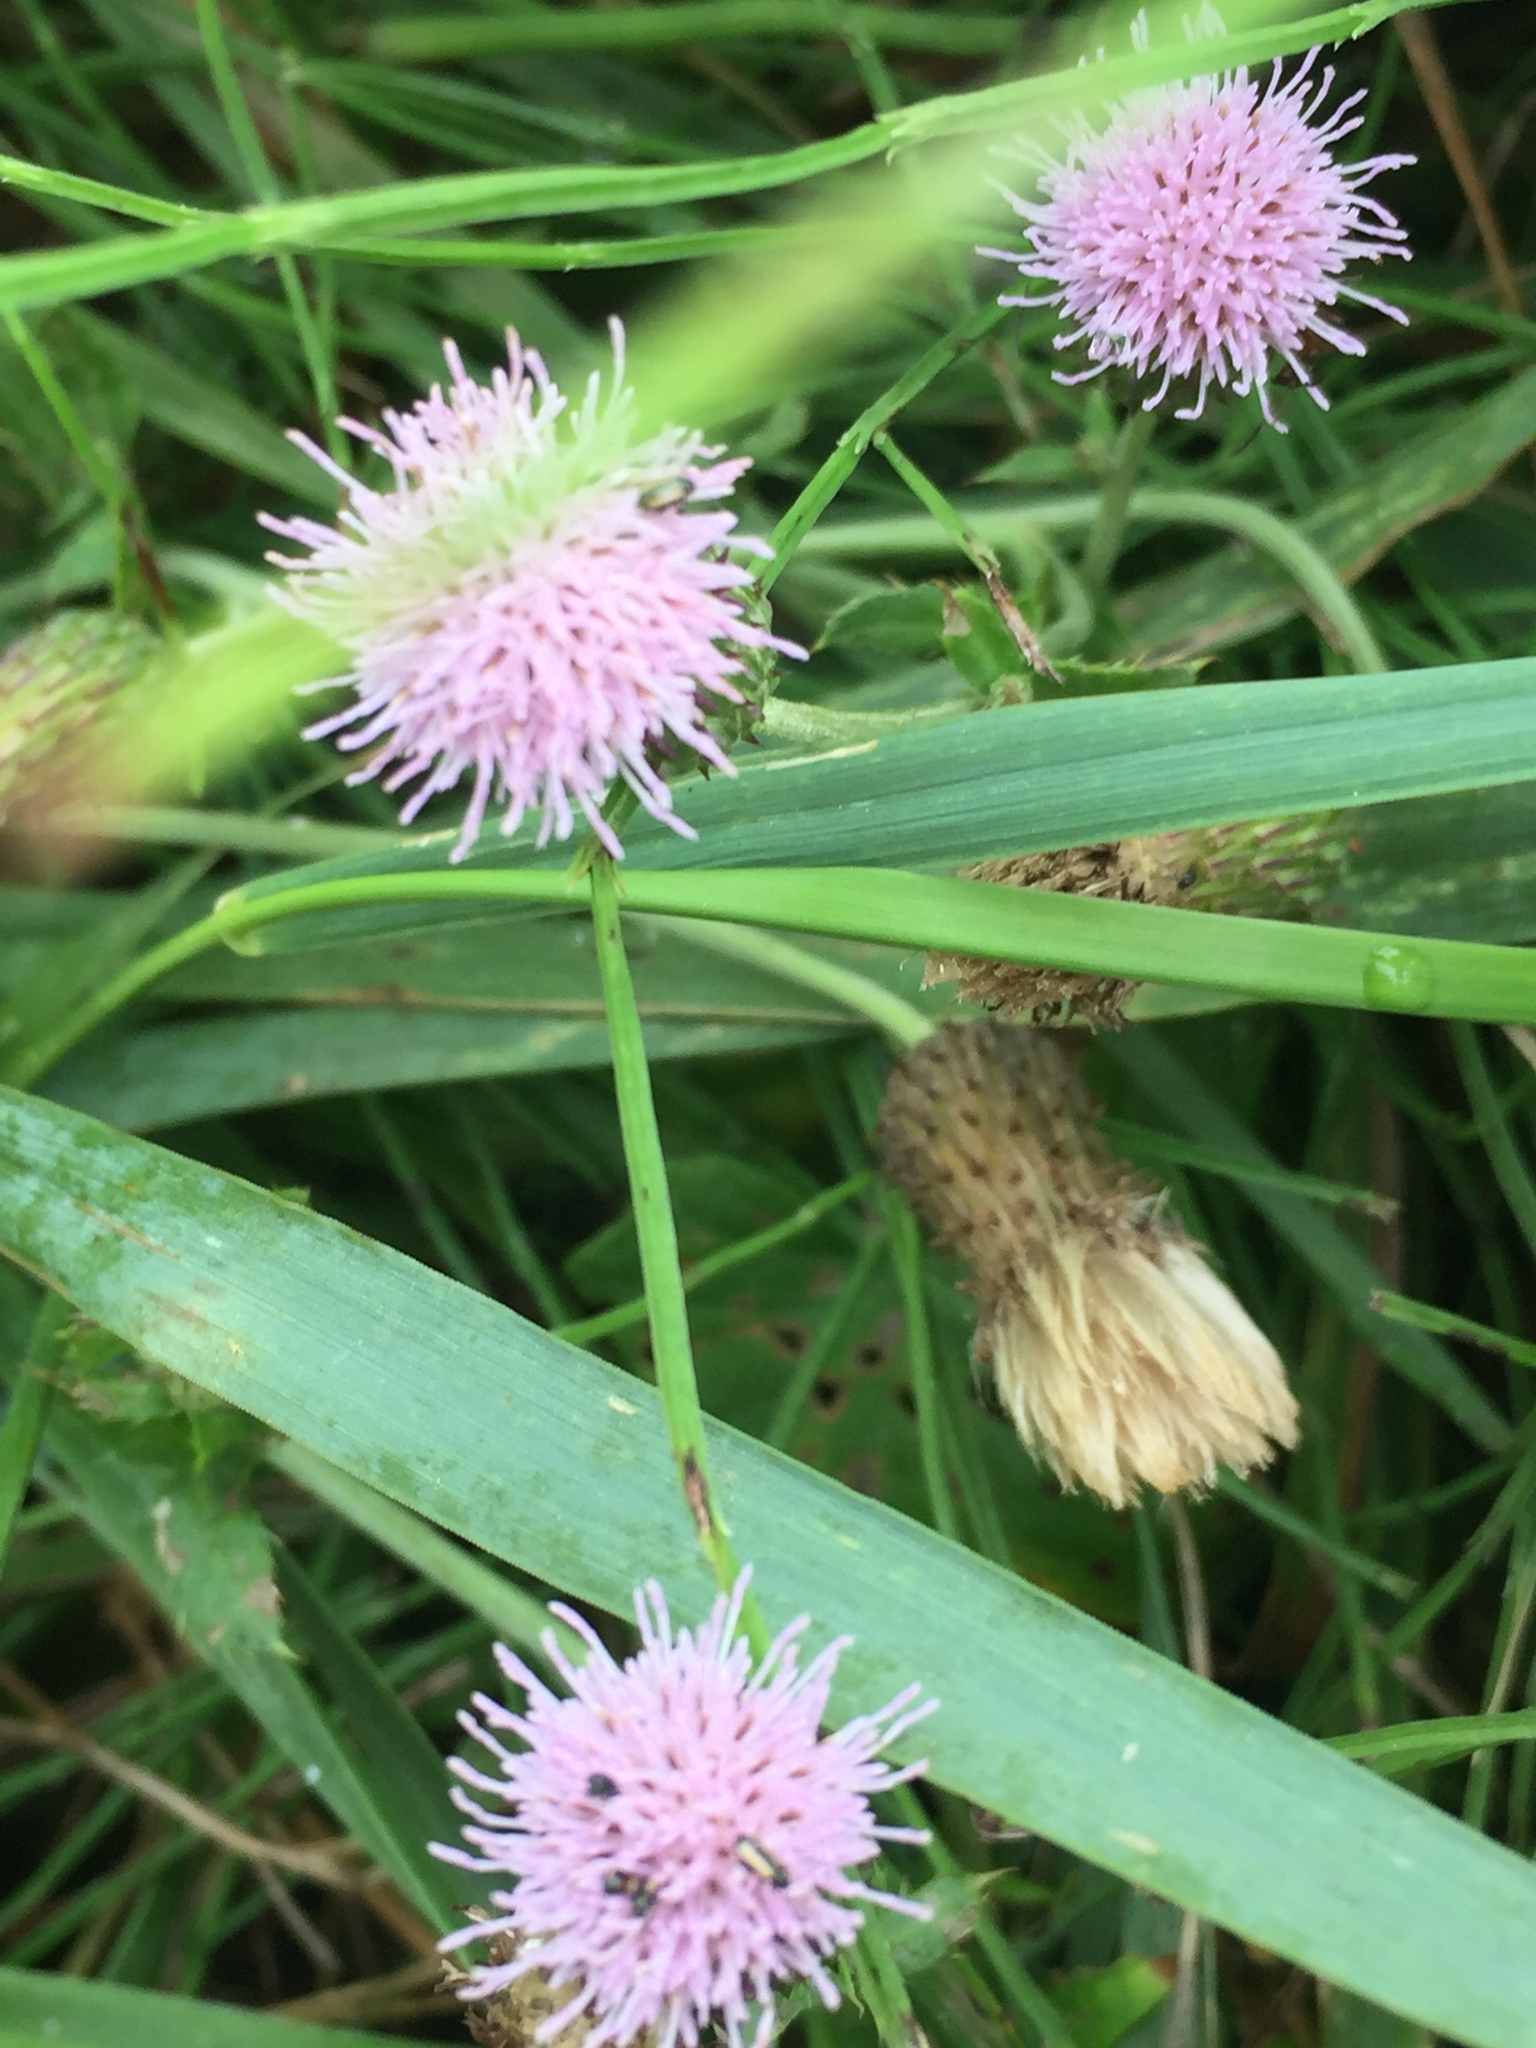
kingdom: Plantae
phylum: Tracheophyta
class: Magnoliopsida
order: Dipsacales
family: Caprifoliaceae
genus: Knautia
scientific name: Knautia arvensis
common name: Field scabiosa
